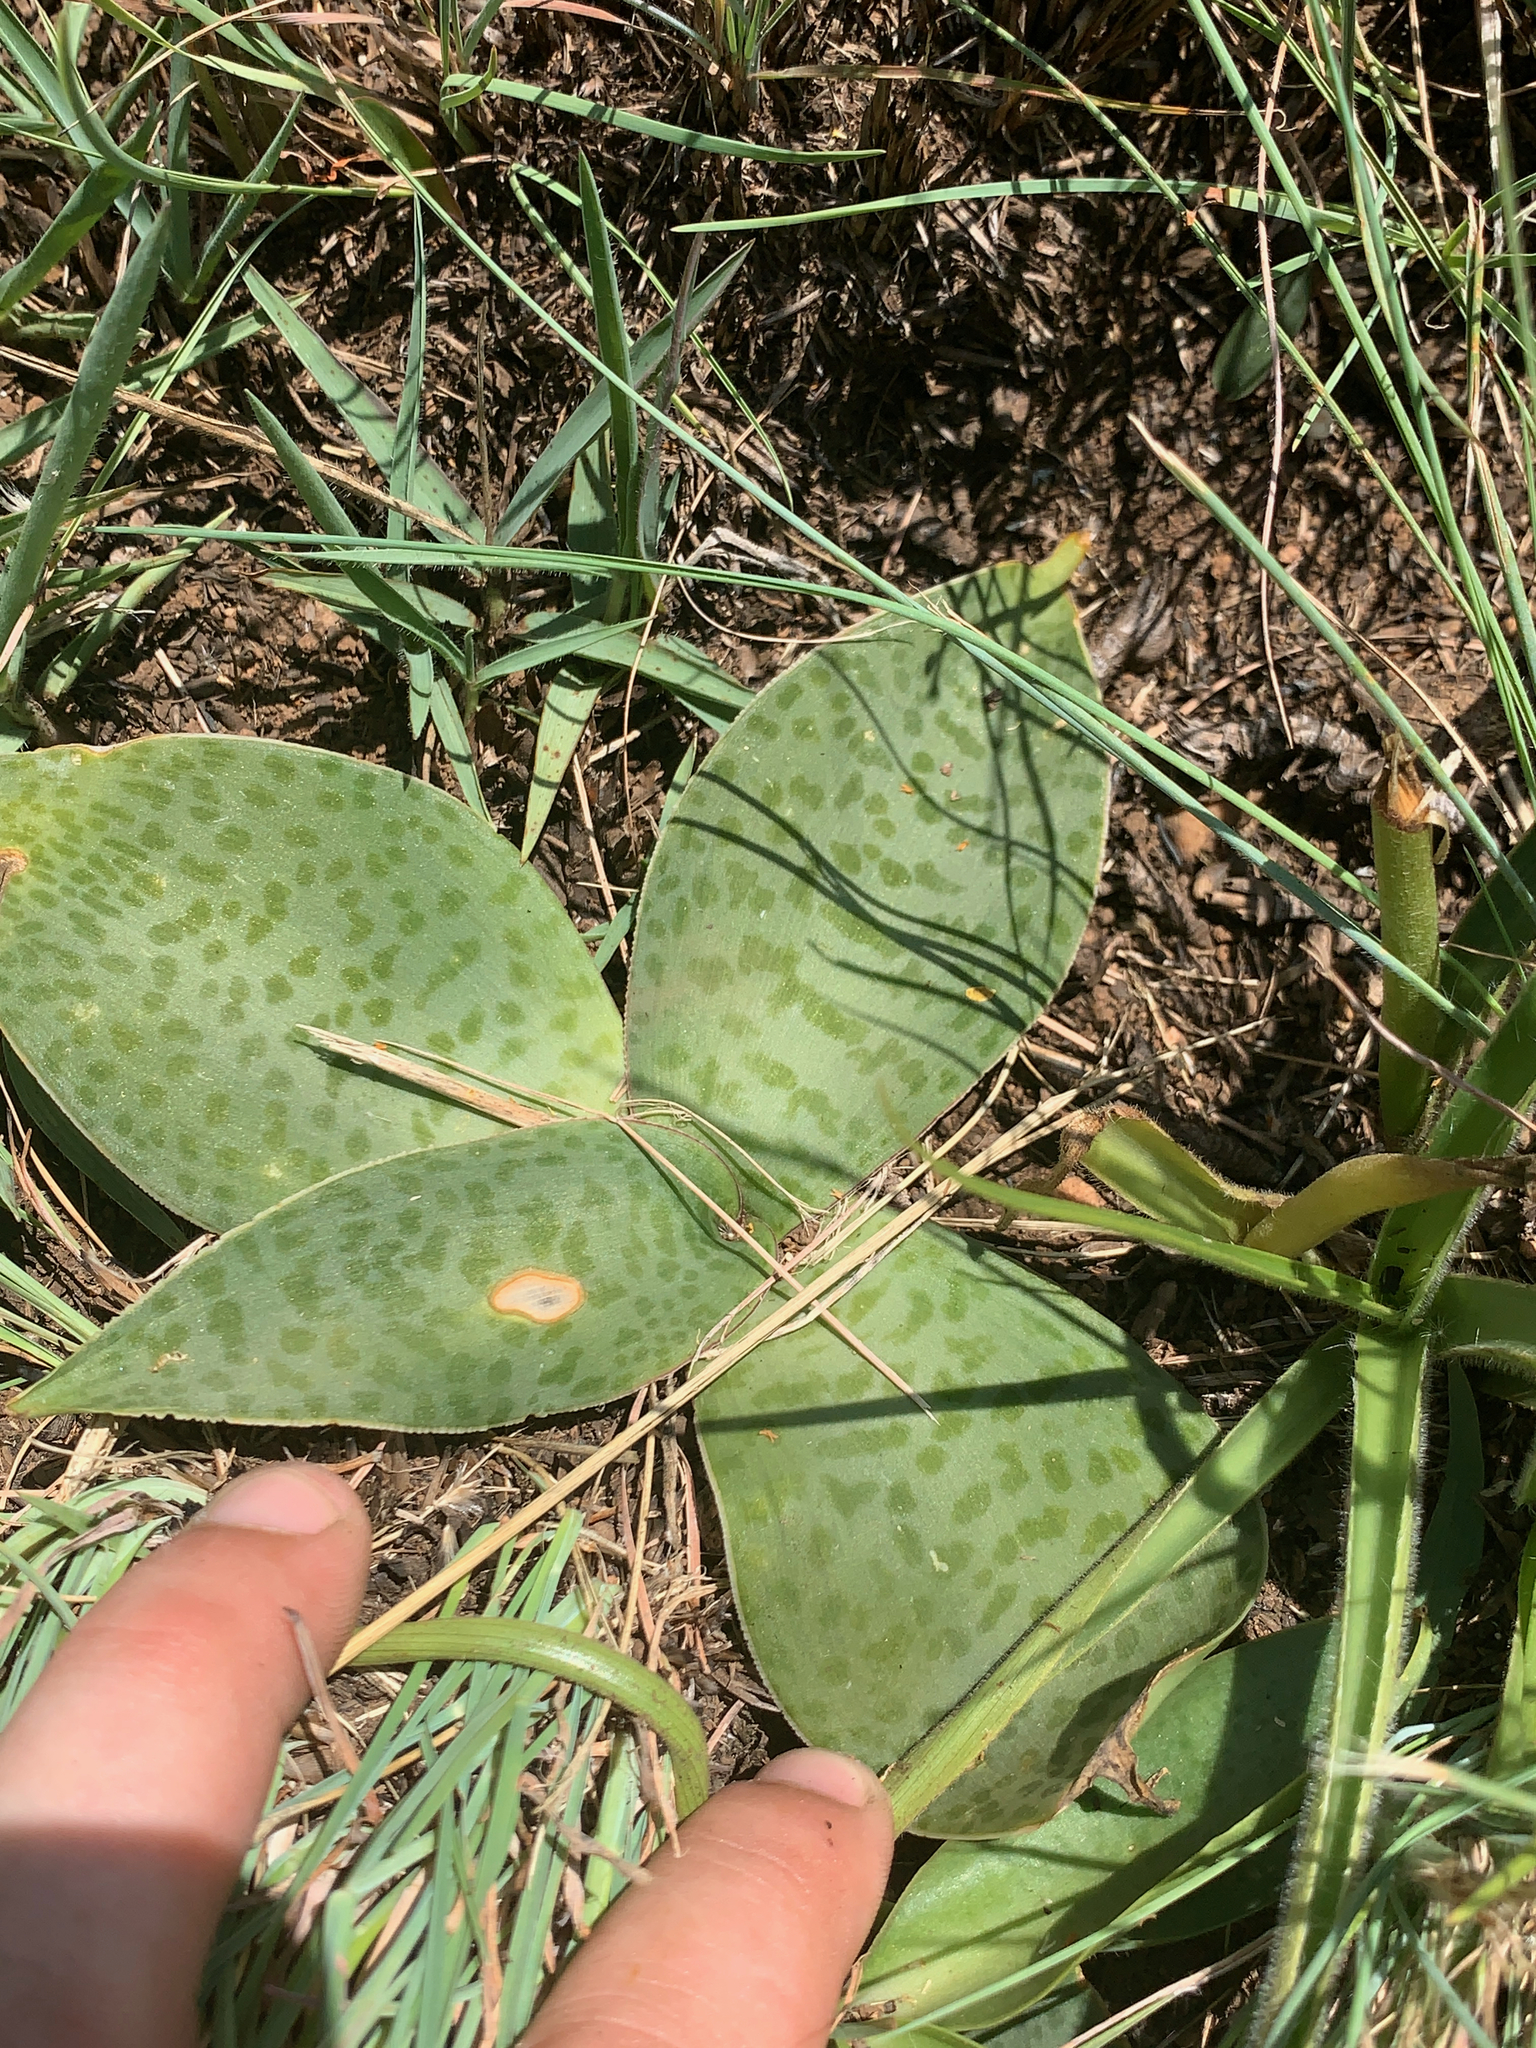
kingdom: Plantae
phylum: Tracheophyta
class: Liliopsida
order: Asparagales
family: Asparagaceae
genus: Ledebouria
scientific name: Ledebouria ovatifolia
